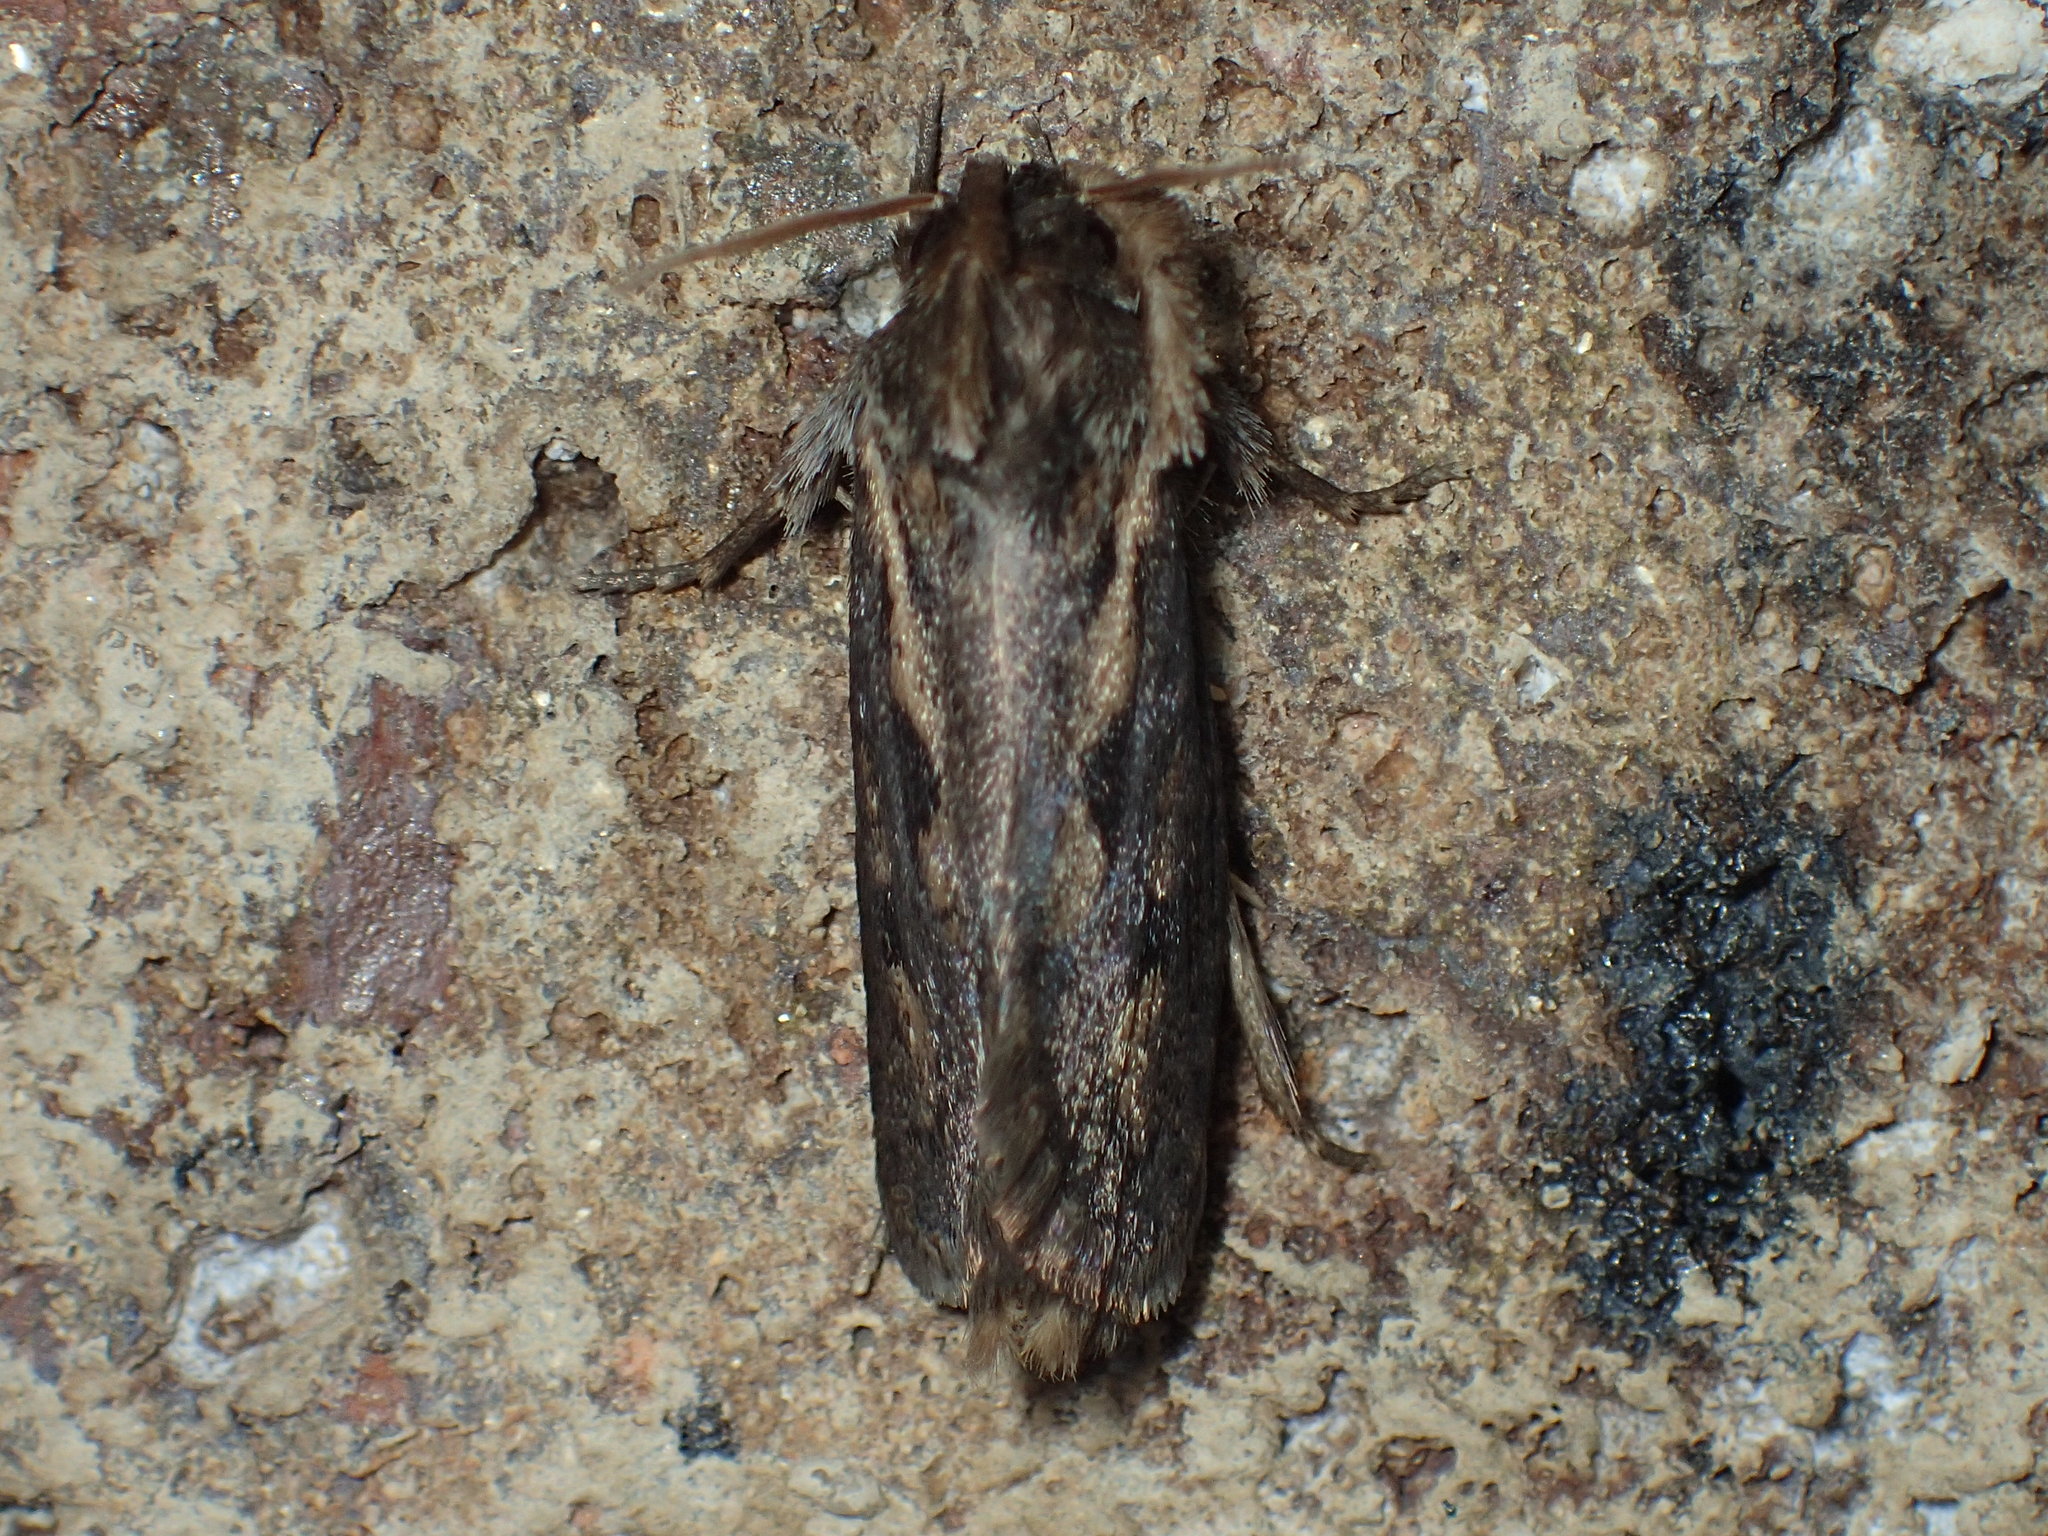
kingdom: Animalia
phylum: Arthropoda
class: Insecta
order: Lepidoptera
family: Tineidae
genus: Acrolophus
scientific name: Acrolophus popeanella
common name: Clemens' grass tubeworm moth
